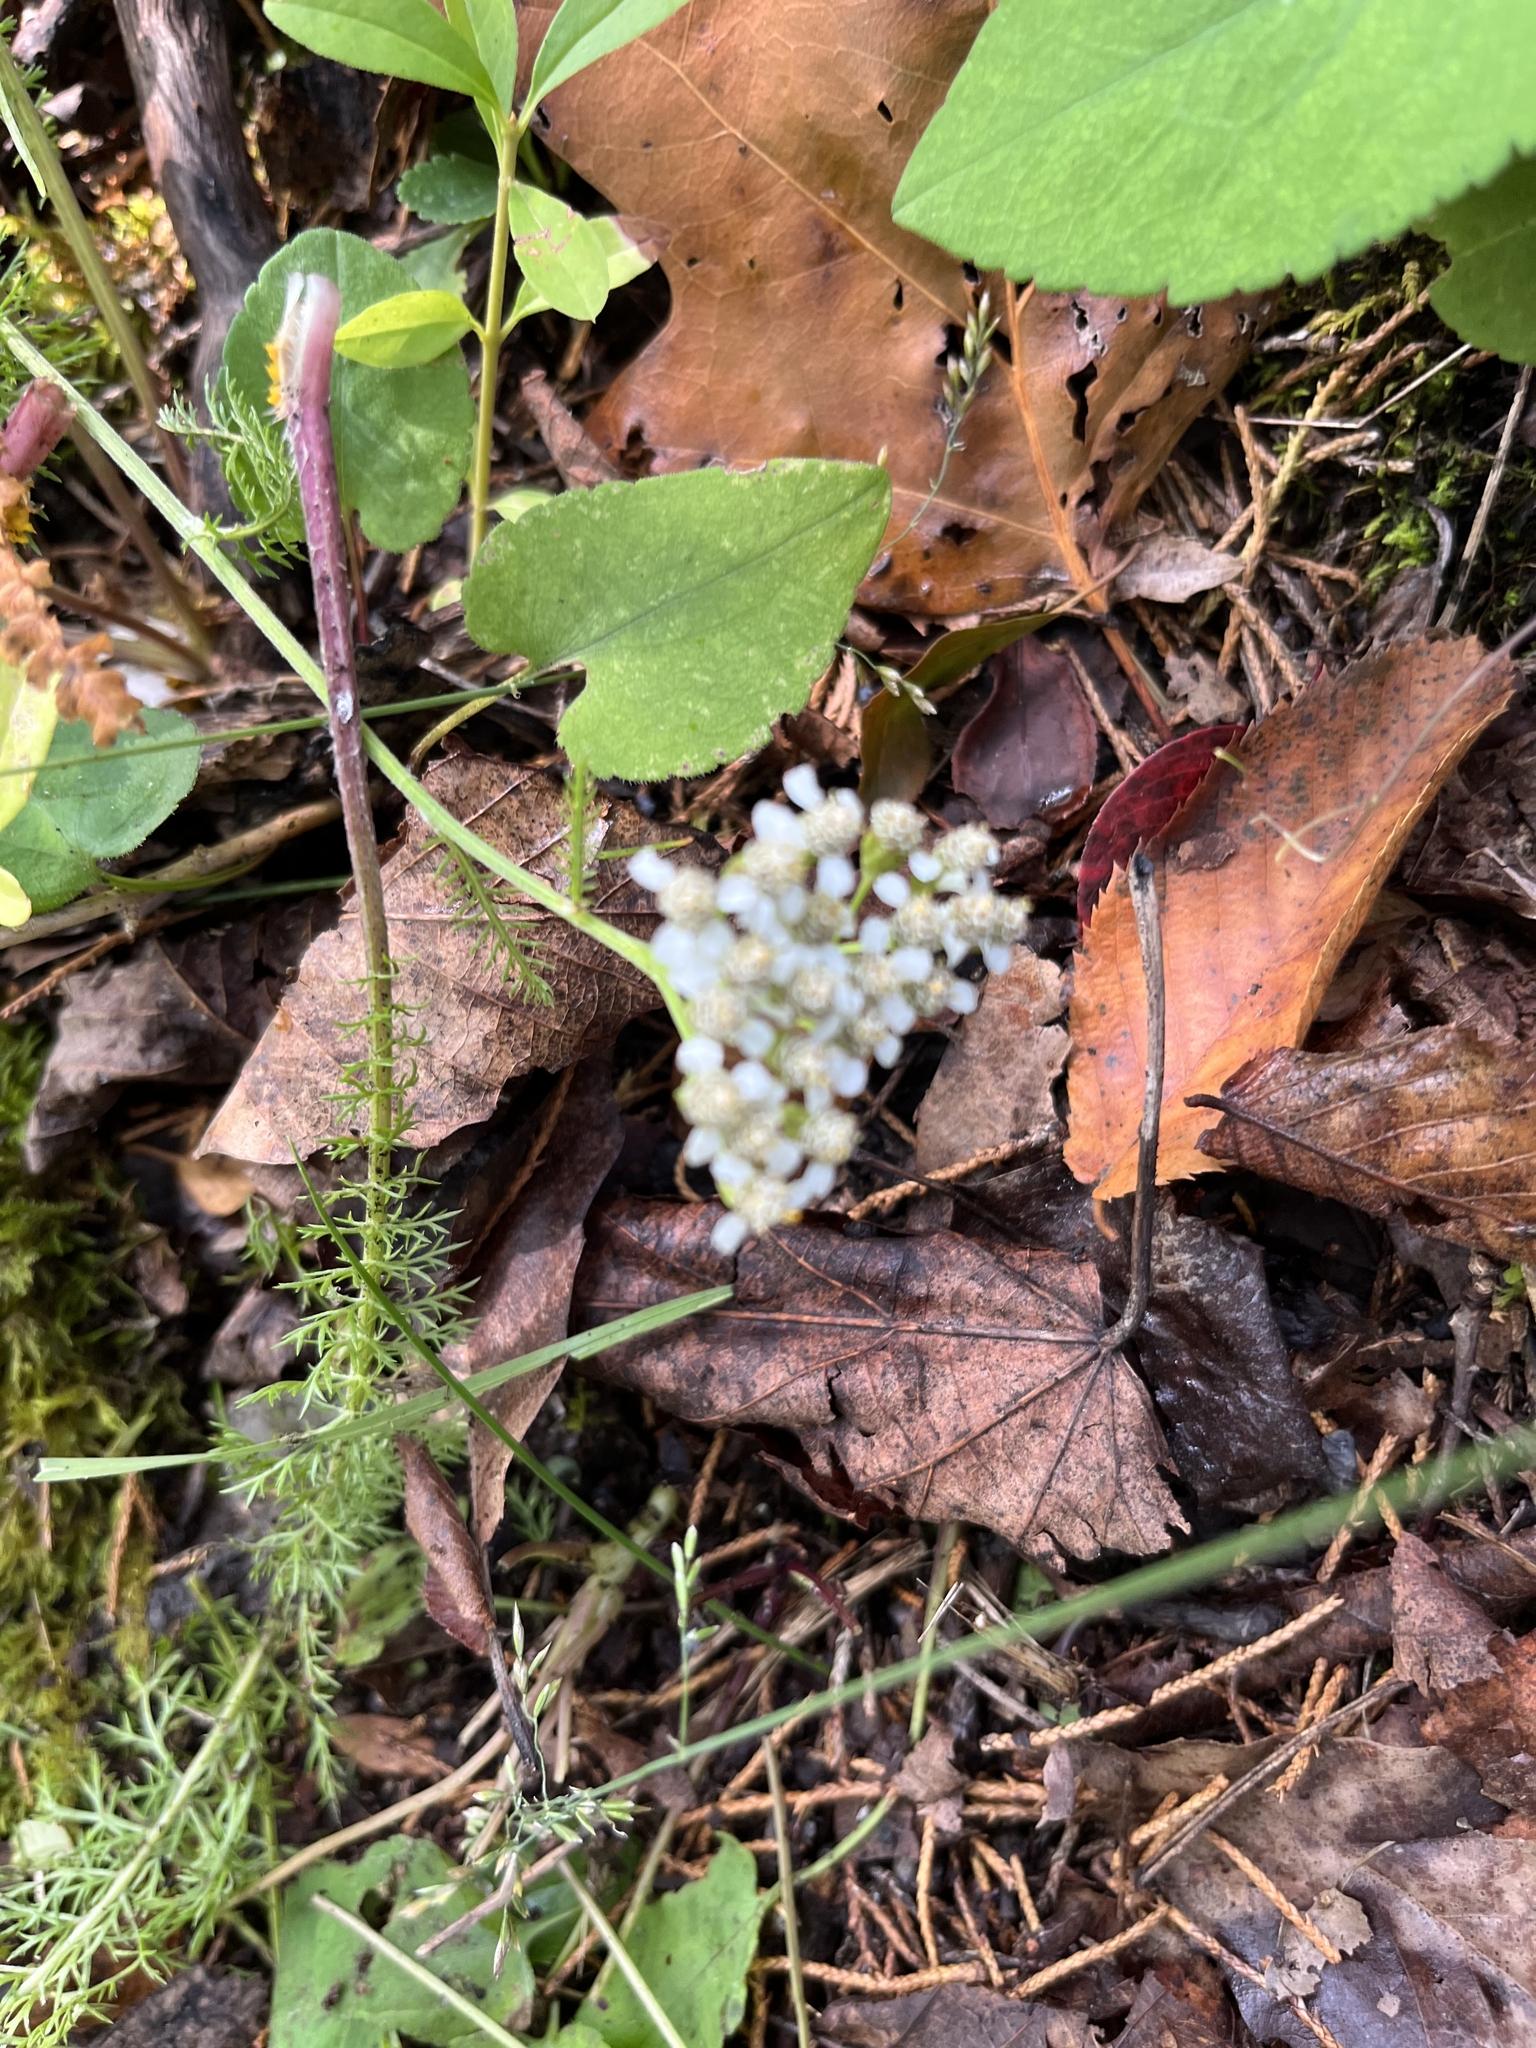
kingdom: Plantae
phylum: Tracheophyta
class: Magnoliopsida
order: Asterales
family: Asteraceae
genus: Achillea
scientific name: Achillea millefolium
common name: Yarrow
